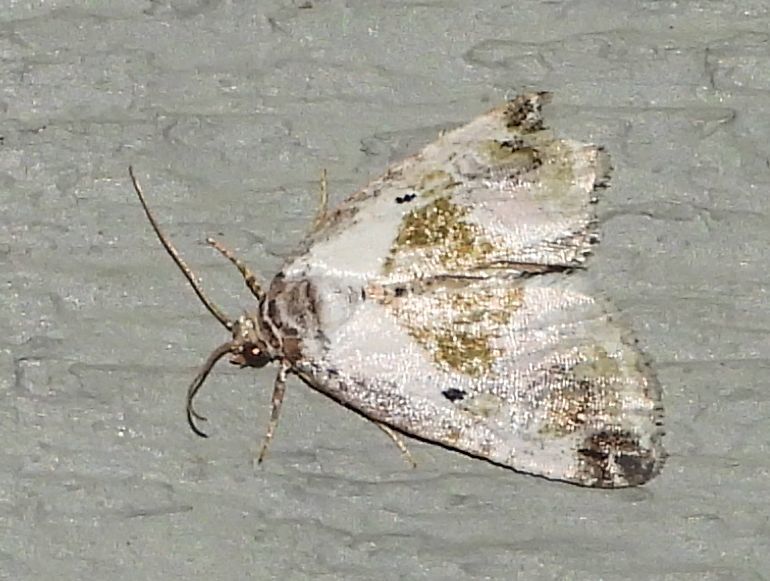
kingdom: Animalia
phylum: Arthropoda
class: Insecta
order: Lepidoptera
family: Noctuidae
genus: Maliattha
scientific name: Maliattha synochitis
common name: Black-dotted glyph
